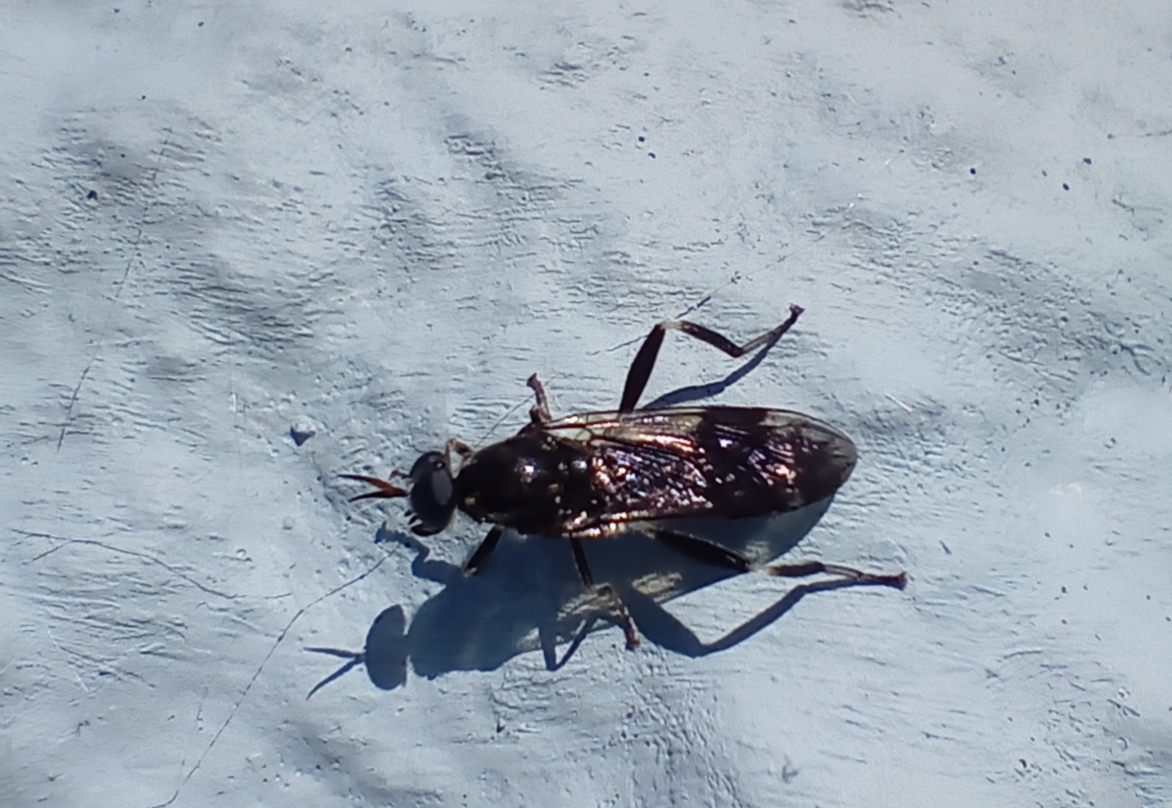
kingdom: Animalia
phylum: Arthropoda
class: Insecta
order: Diptera
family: Stratiomyidae
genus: Exaireta
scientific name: Exaireta spinigera
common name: Blue soldier fly
